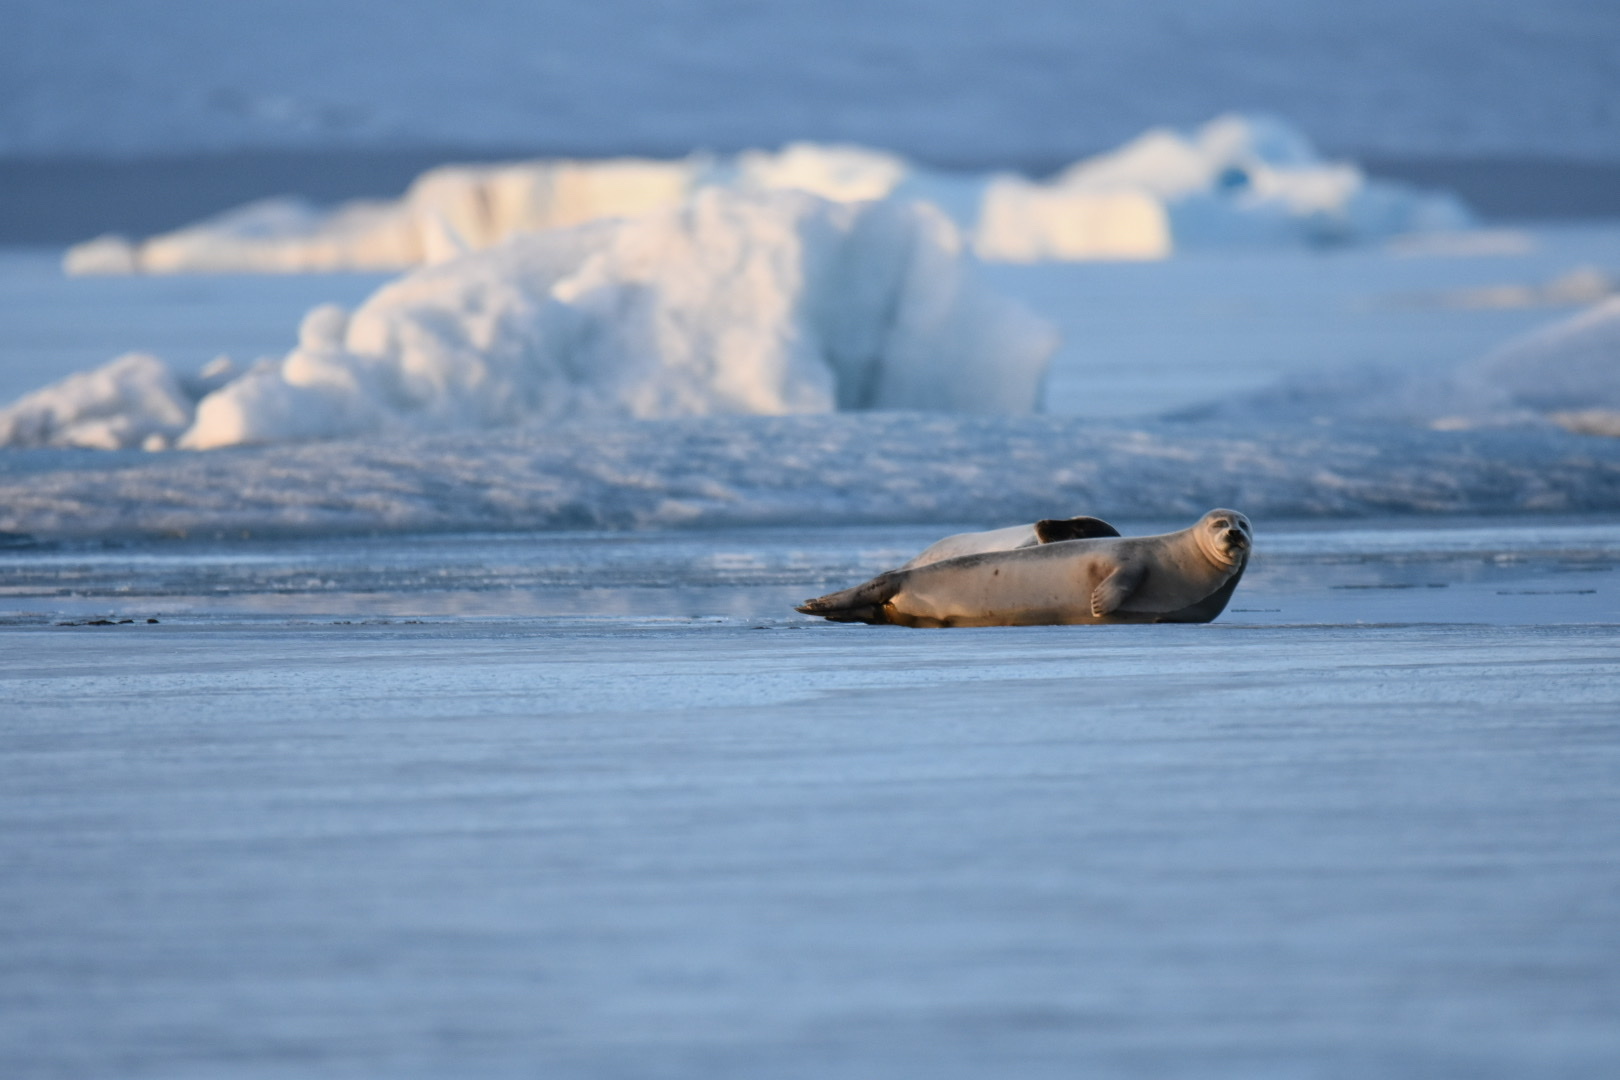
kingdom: Animalia
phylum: Chordata
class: Mammalia
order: Carnivora
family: Phocidae
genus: Phoca
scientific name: Phoca vitulina
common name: Harbor seal
